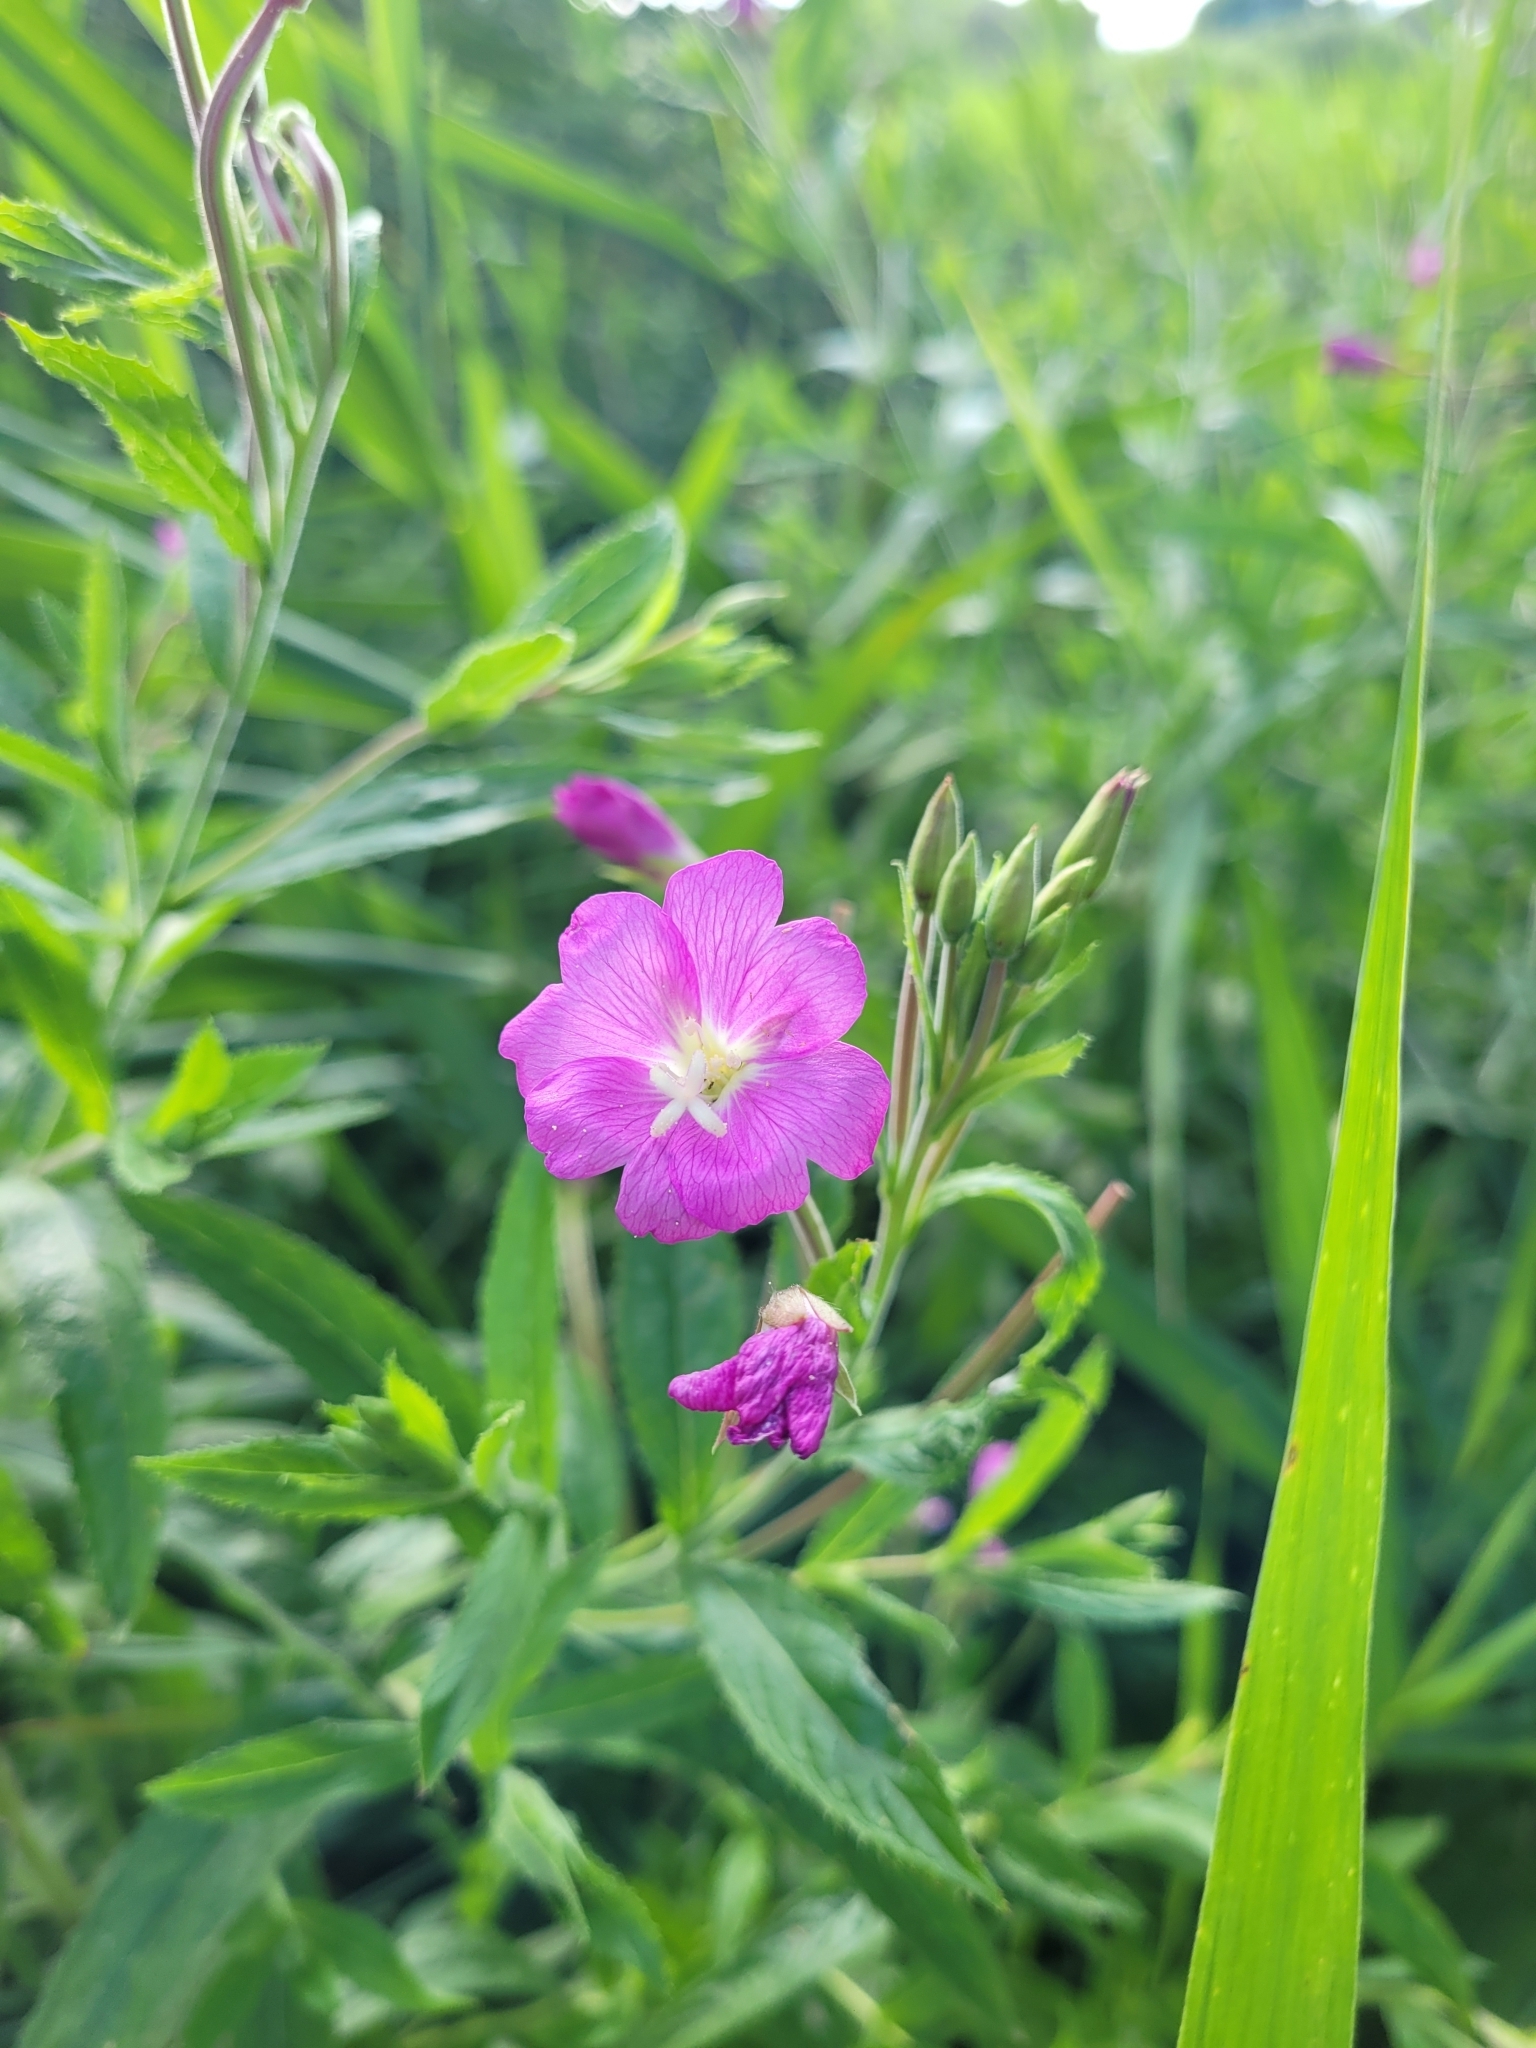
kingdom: Plantae
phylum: Tracheophyta
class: Magnoliopsida
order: Myrtales
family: Onagraceae
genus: Epilobium
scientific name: Epilobium hirsutum
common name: Great willowherb
